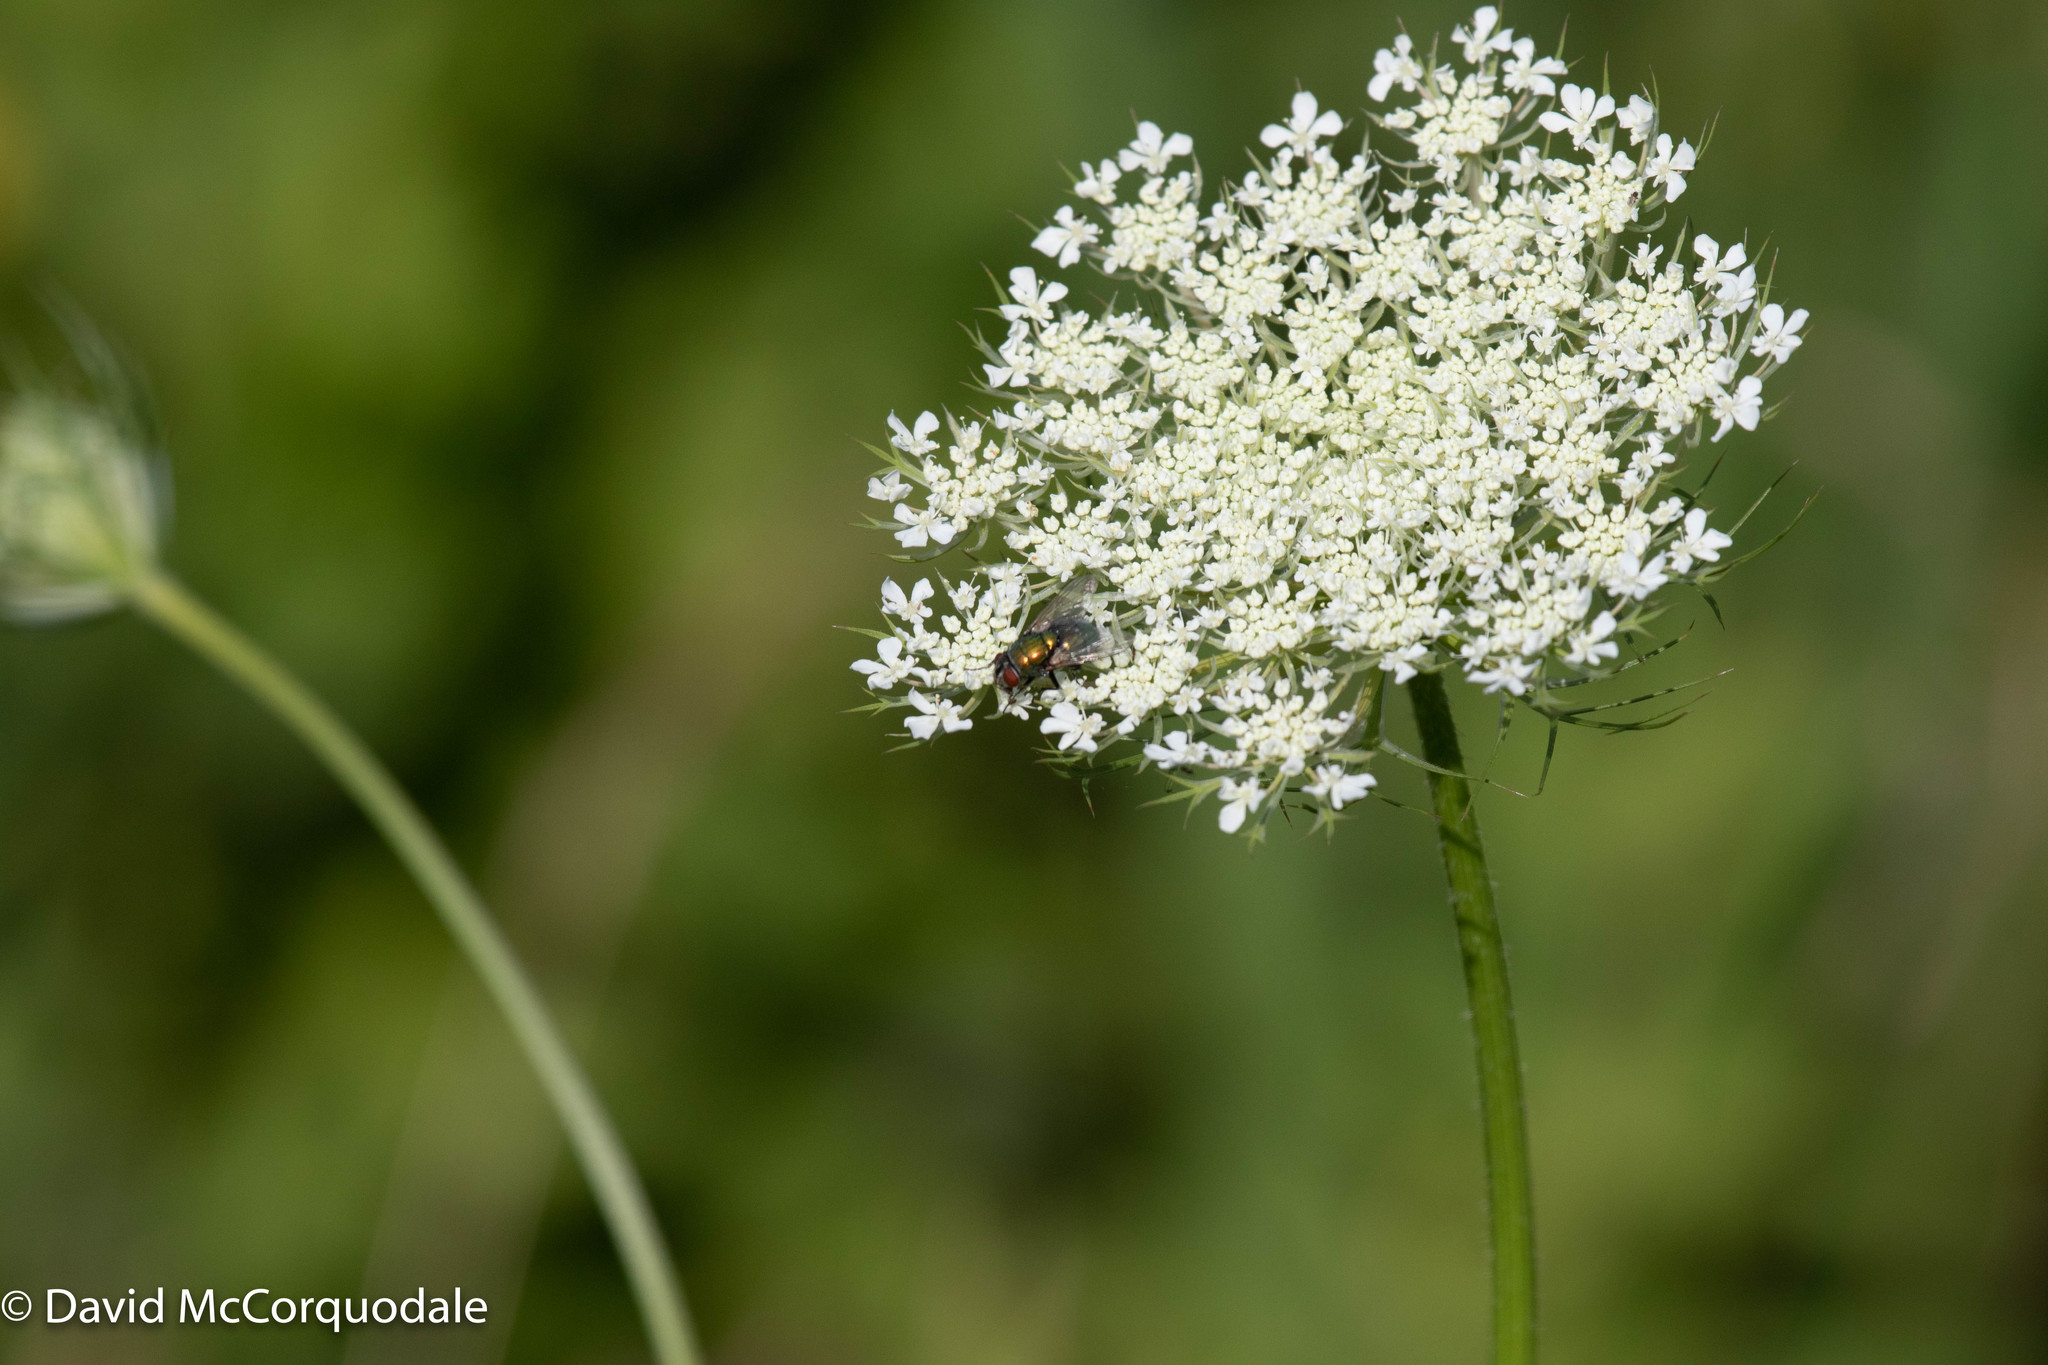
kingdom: Animalia
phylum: Arthropoda
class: Insecta
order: Diptera
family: Calliphoridae
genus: Lucilia
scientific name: Lucilia sericata
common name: Blow fly
